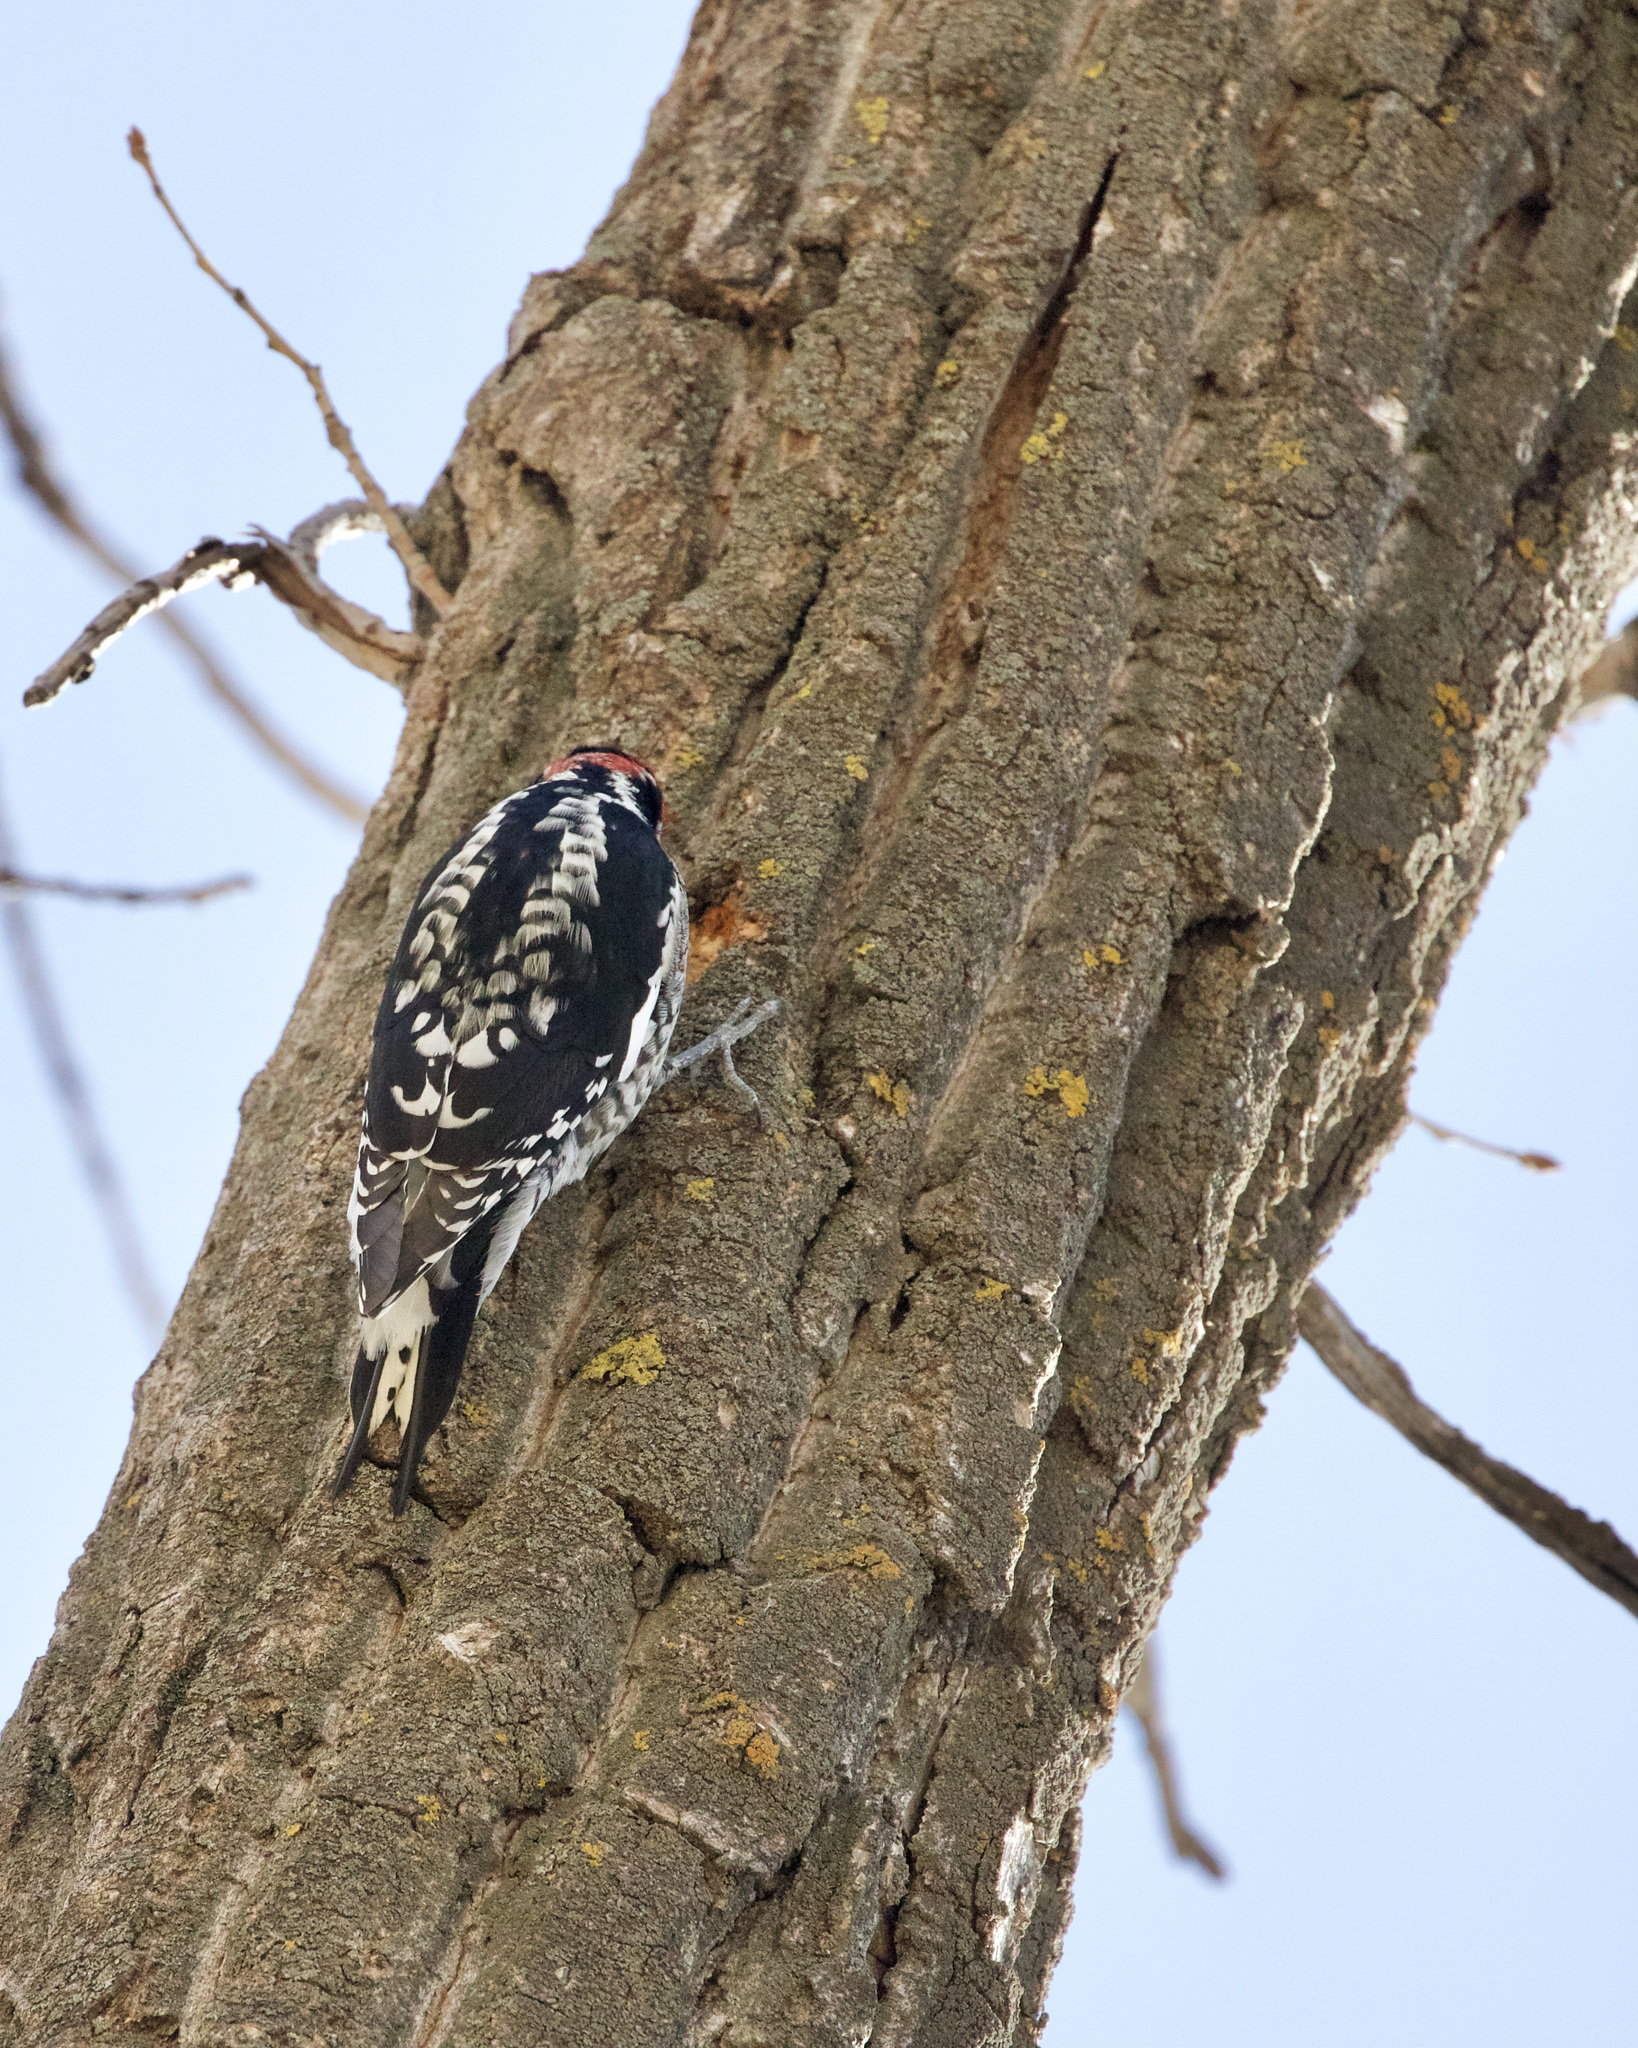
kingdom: Animalia
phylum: Chordata
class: Aves
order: Piciformes
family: Picidae
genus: Sphyrapicus
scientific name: Sphyrapicus nuchalis
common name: Red-naped sapsucker
